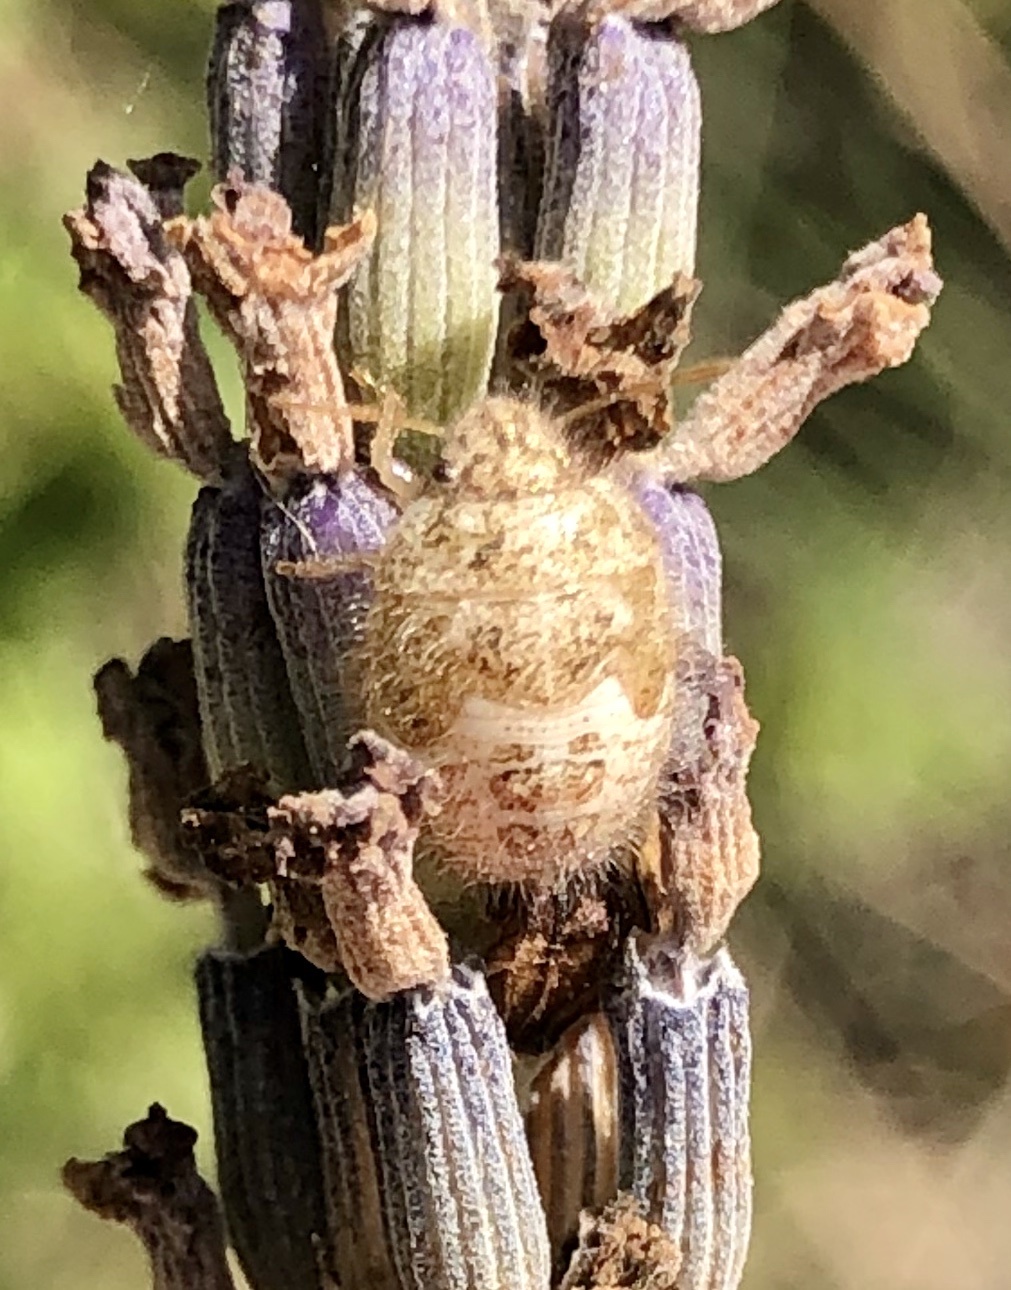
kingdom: Animalia
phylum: Arthropoda
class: Insecta
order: Hemiptera
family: Pentatomidae
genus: Staria
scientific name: Staria lunata
